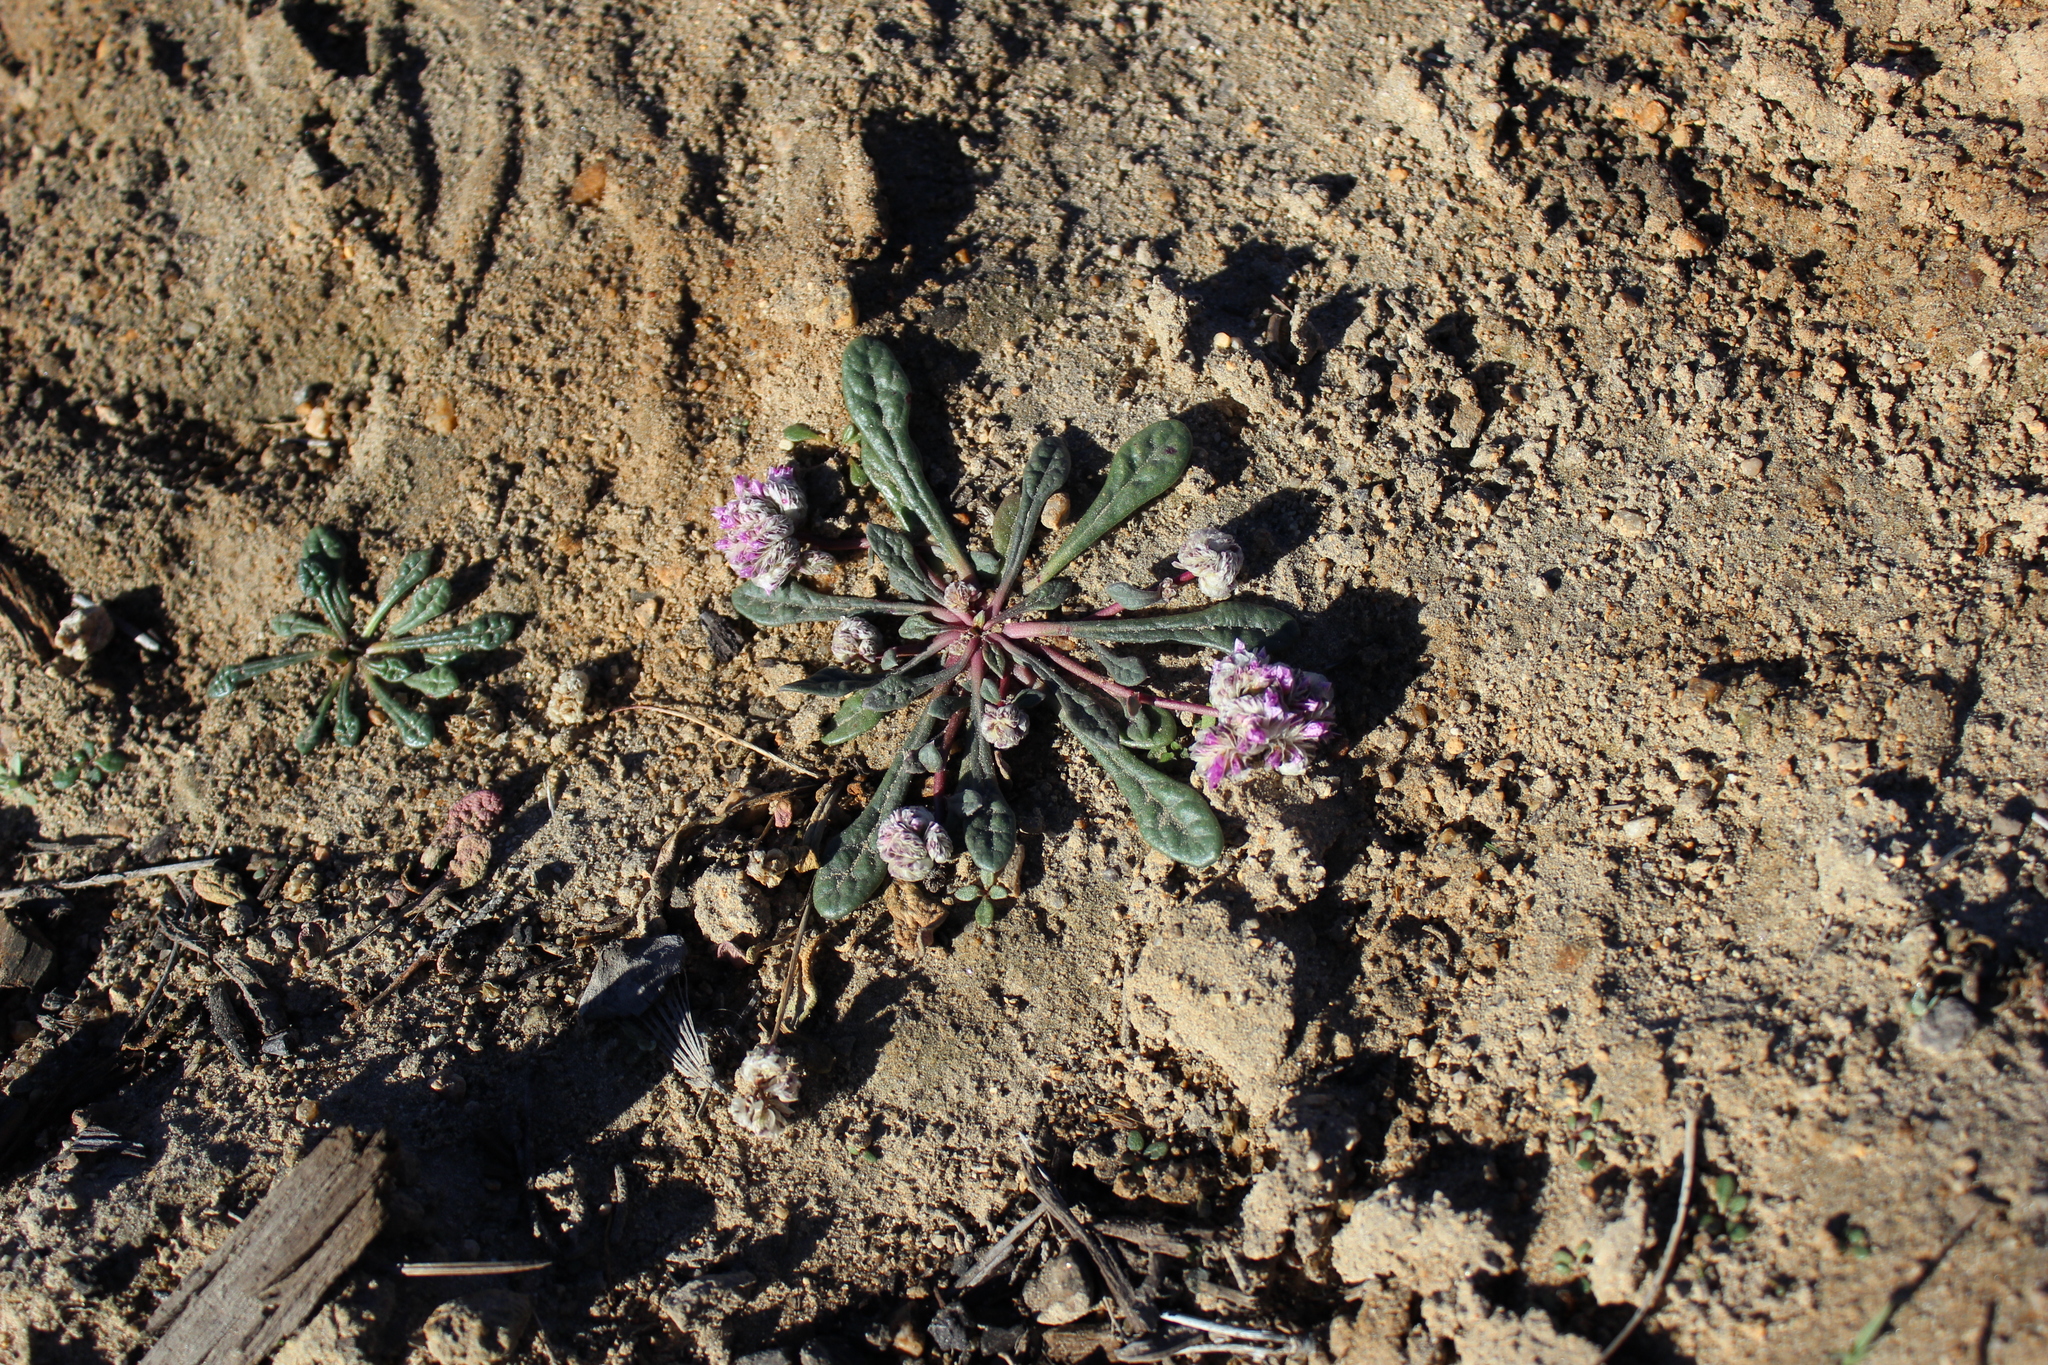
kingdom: Plantae
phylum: Tracheophyta
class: Magnoliopsida
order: Caryophyllales
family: Montiaceae
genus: Calyptridium
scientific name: Calyptridium monospermum
